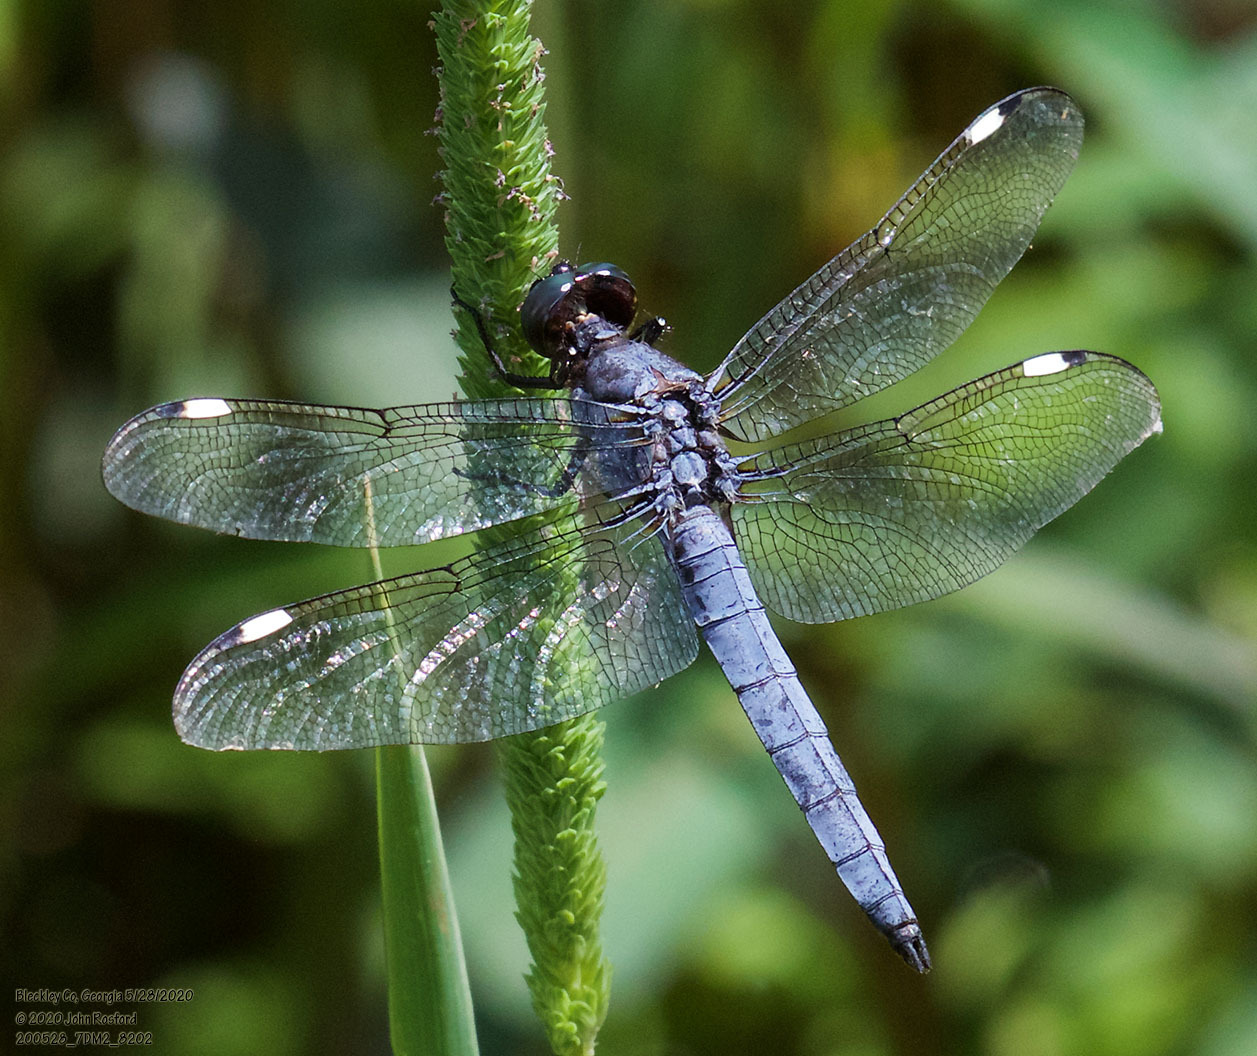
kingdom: Animalia
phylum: Arthropoda
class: Insecta
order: Odonata
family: Libellulidae
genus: Libellula
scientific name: Libellula cyanea
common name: Spangled skimmer
